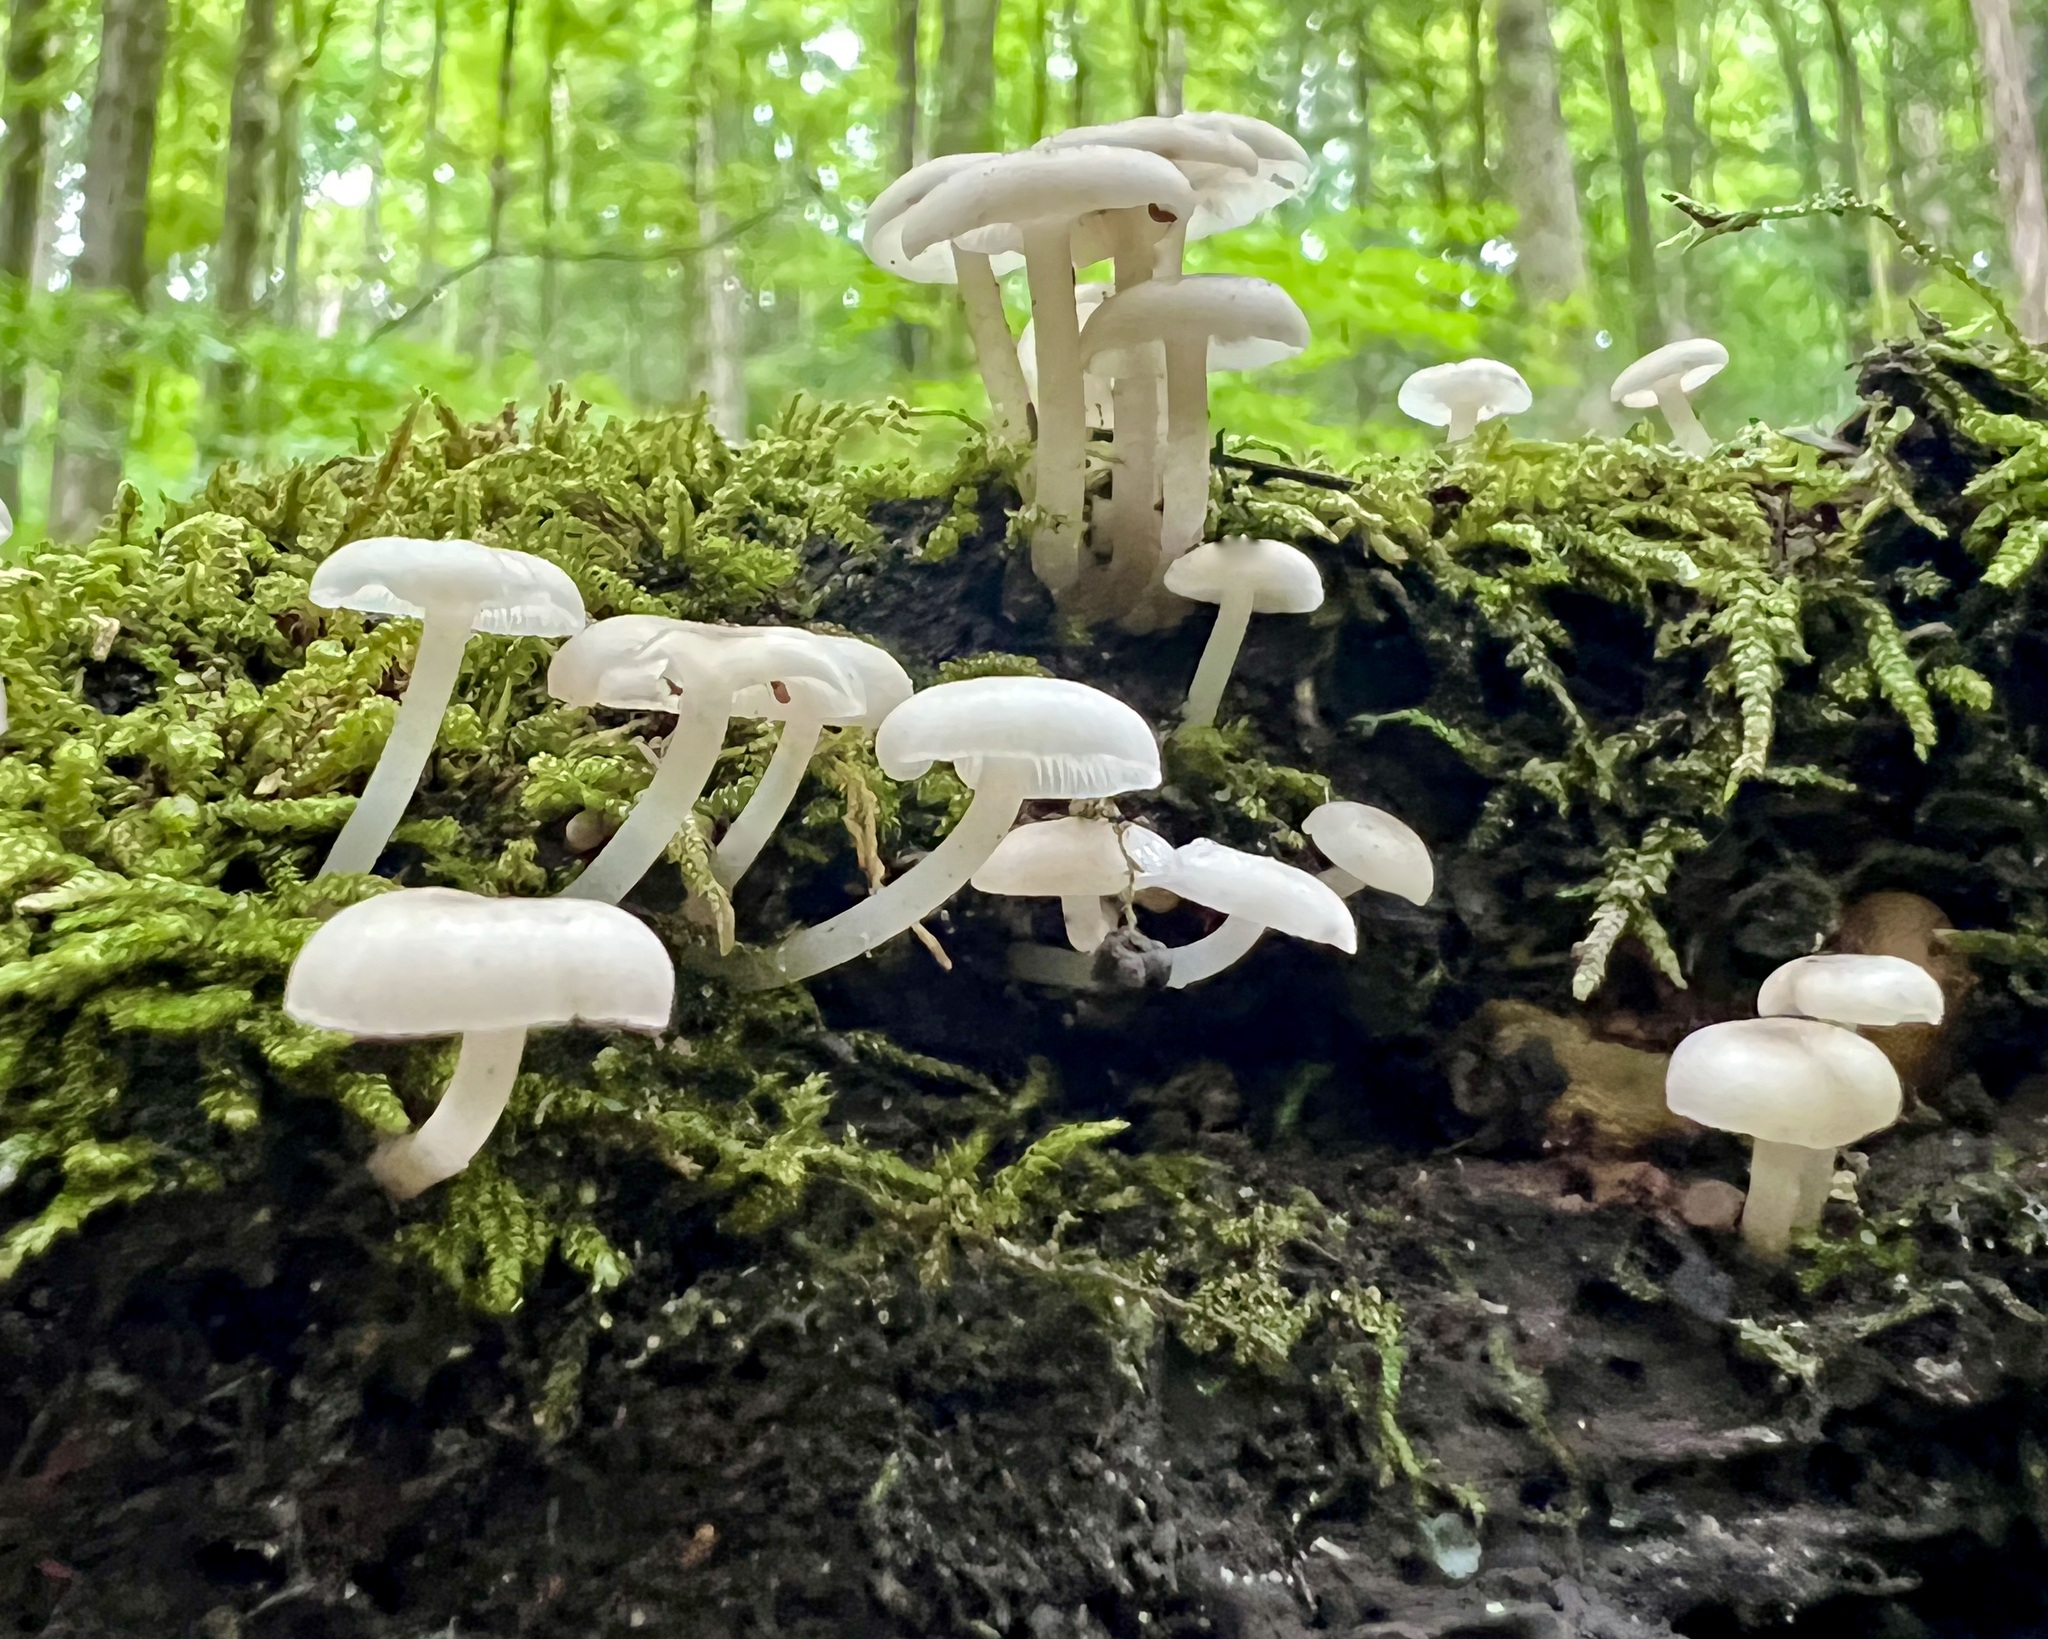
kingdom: Fungi
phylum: Basidiomycota
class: Agaricomycetes
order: Agaricales
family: Marasmiaceae
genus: Clitocybula
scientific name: Clitocybula abundans
